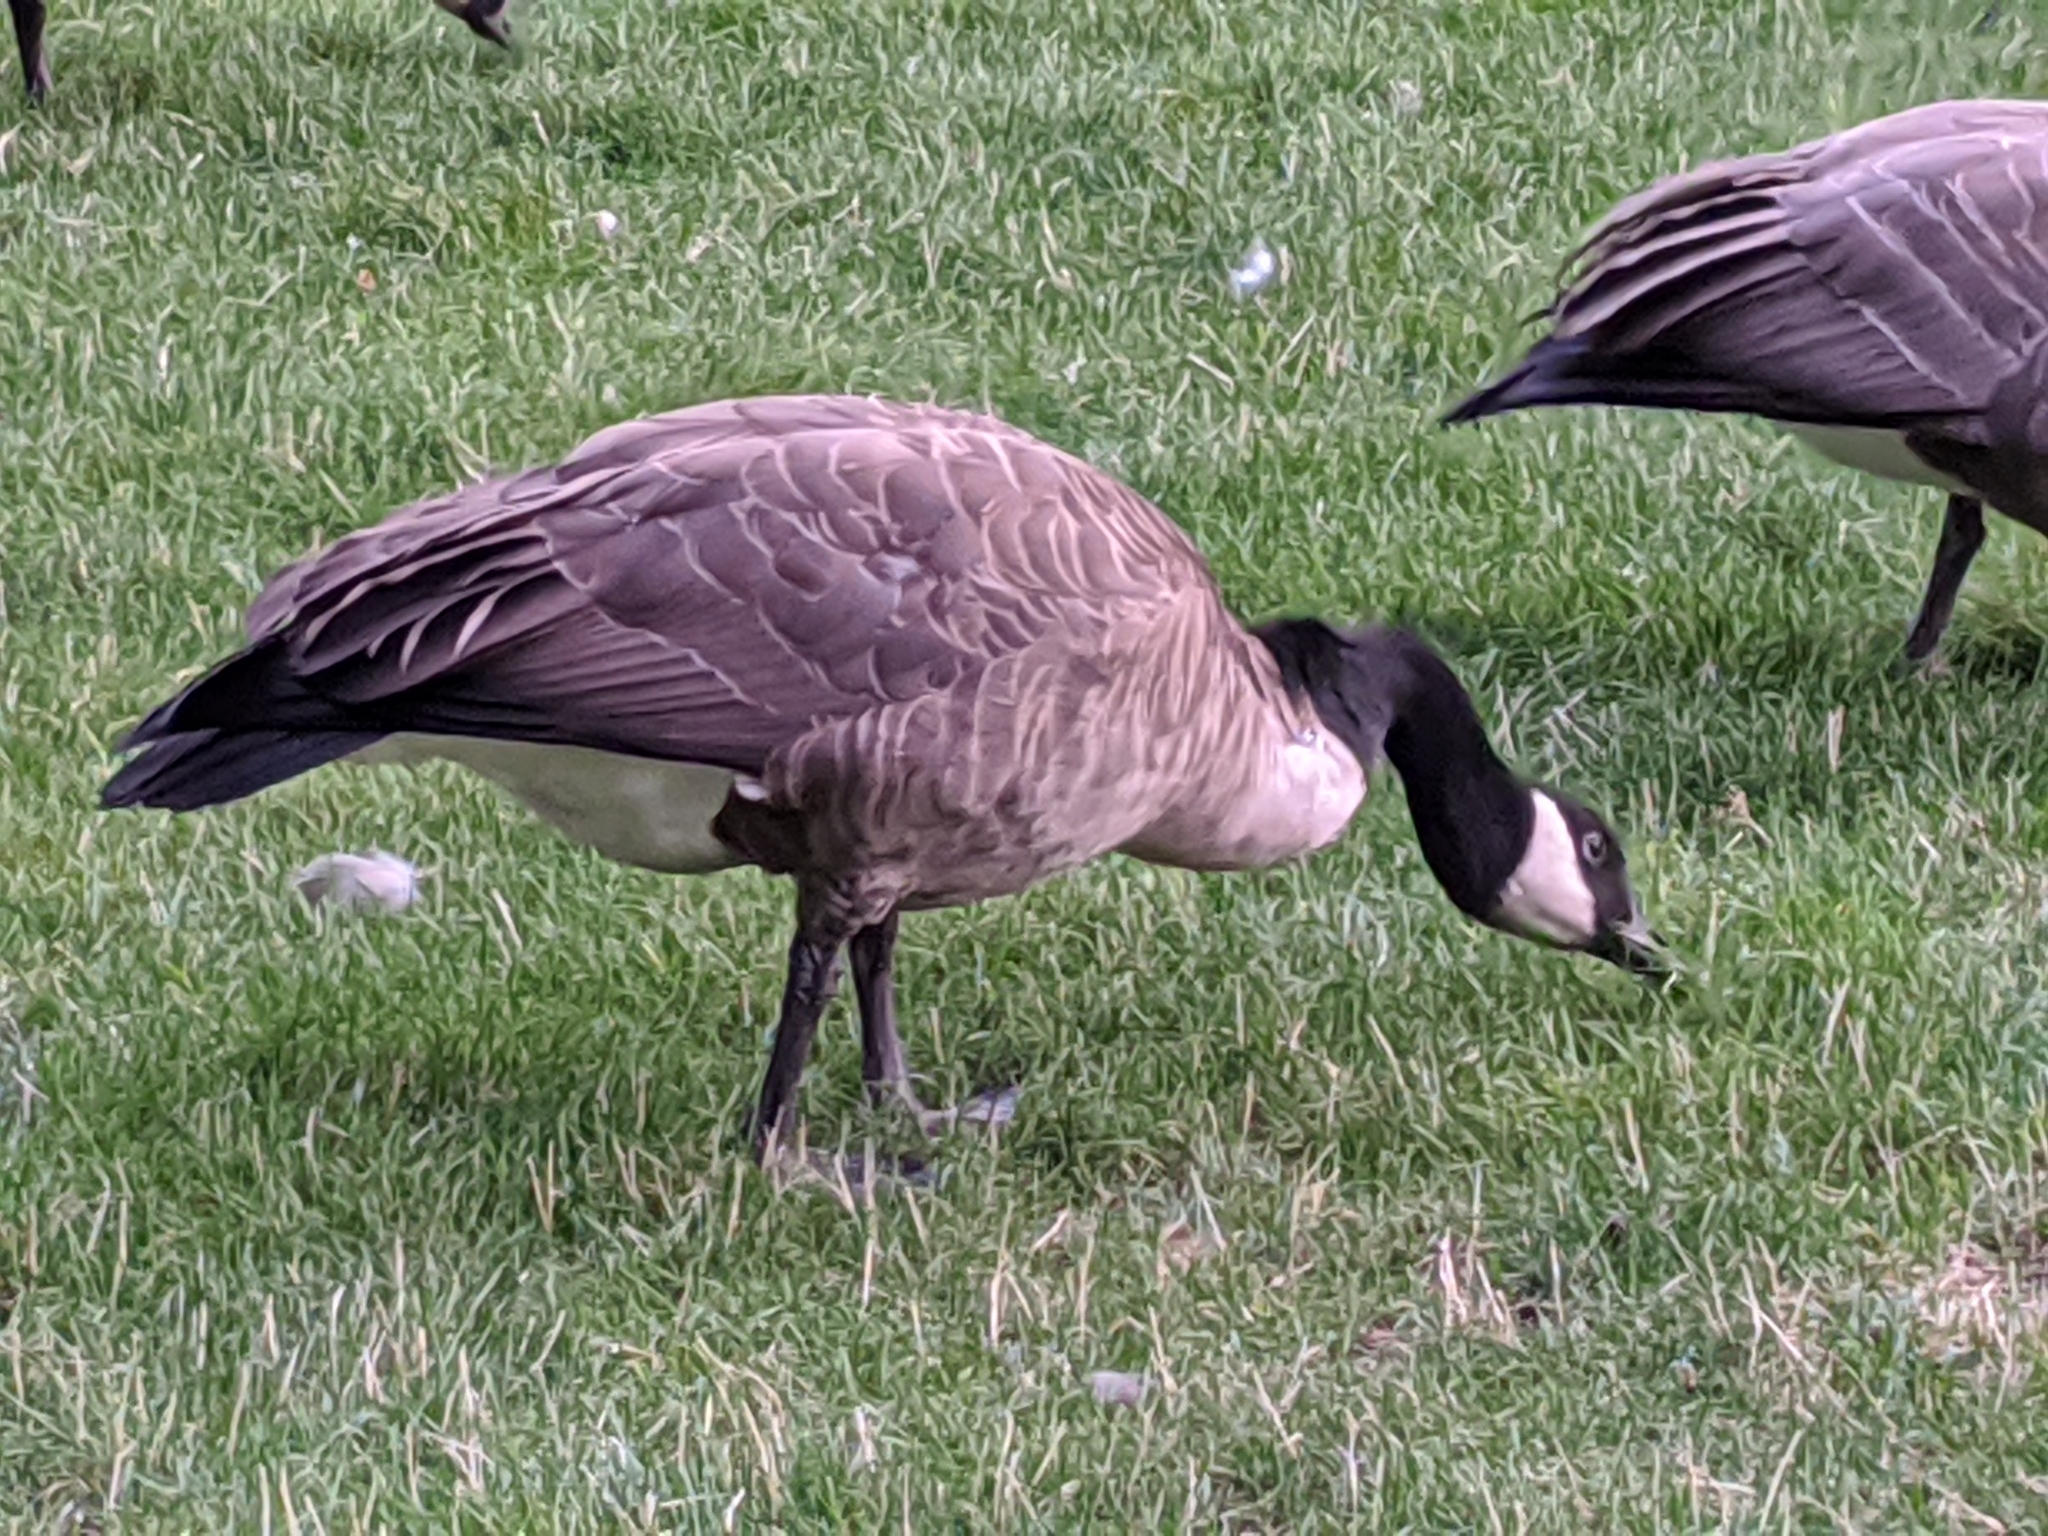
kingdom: Animalia
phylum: Chordata
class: Aves
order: Anseriformes
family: Anatidae
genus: Branta
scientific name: Branta canadensis
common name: Canada goose
